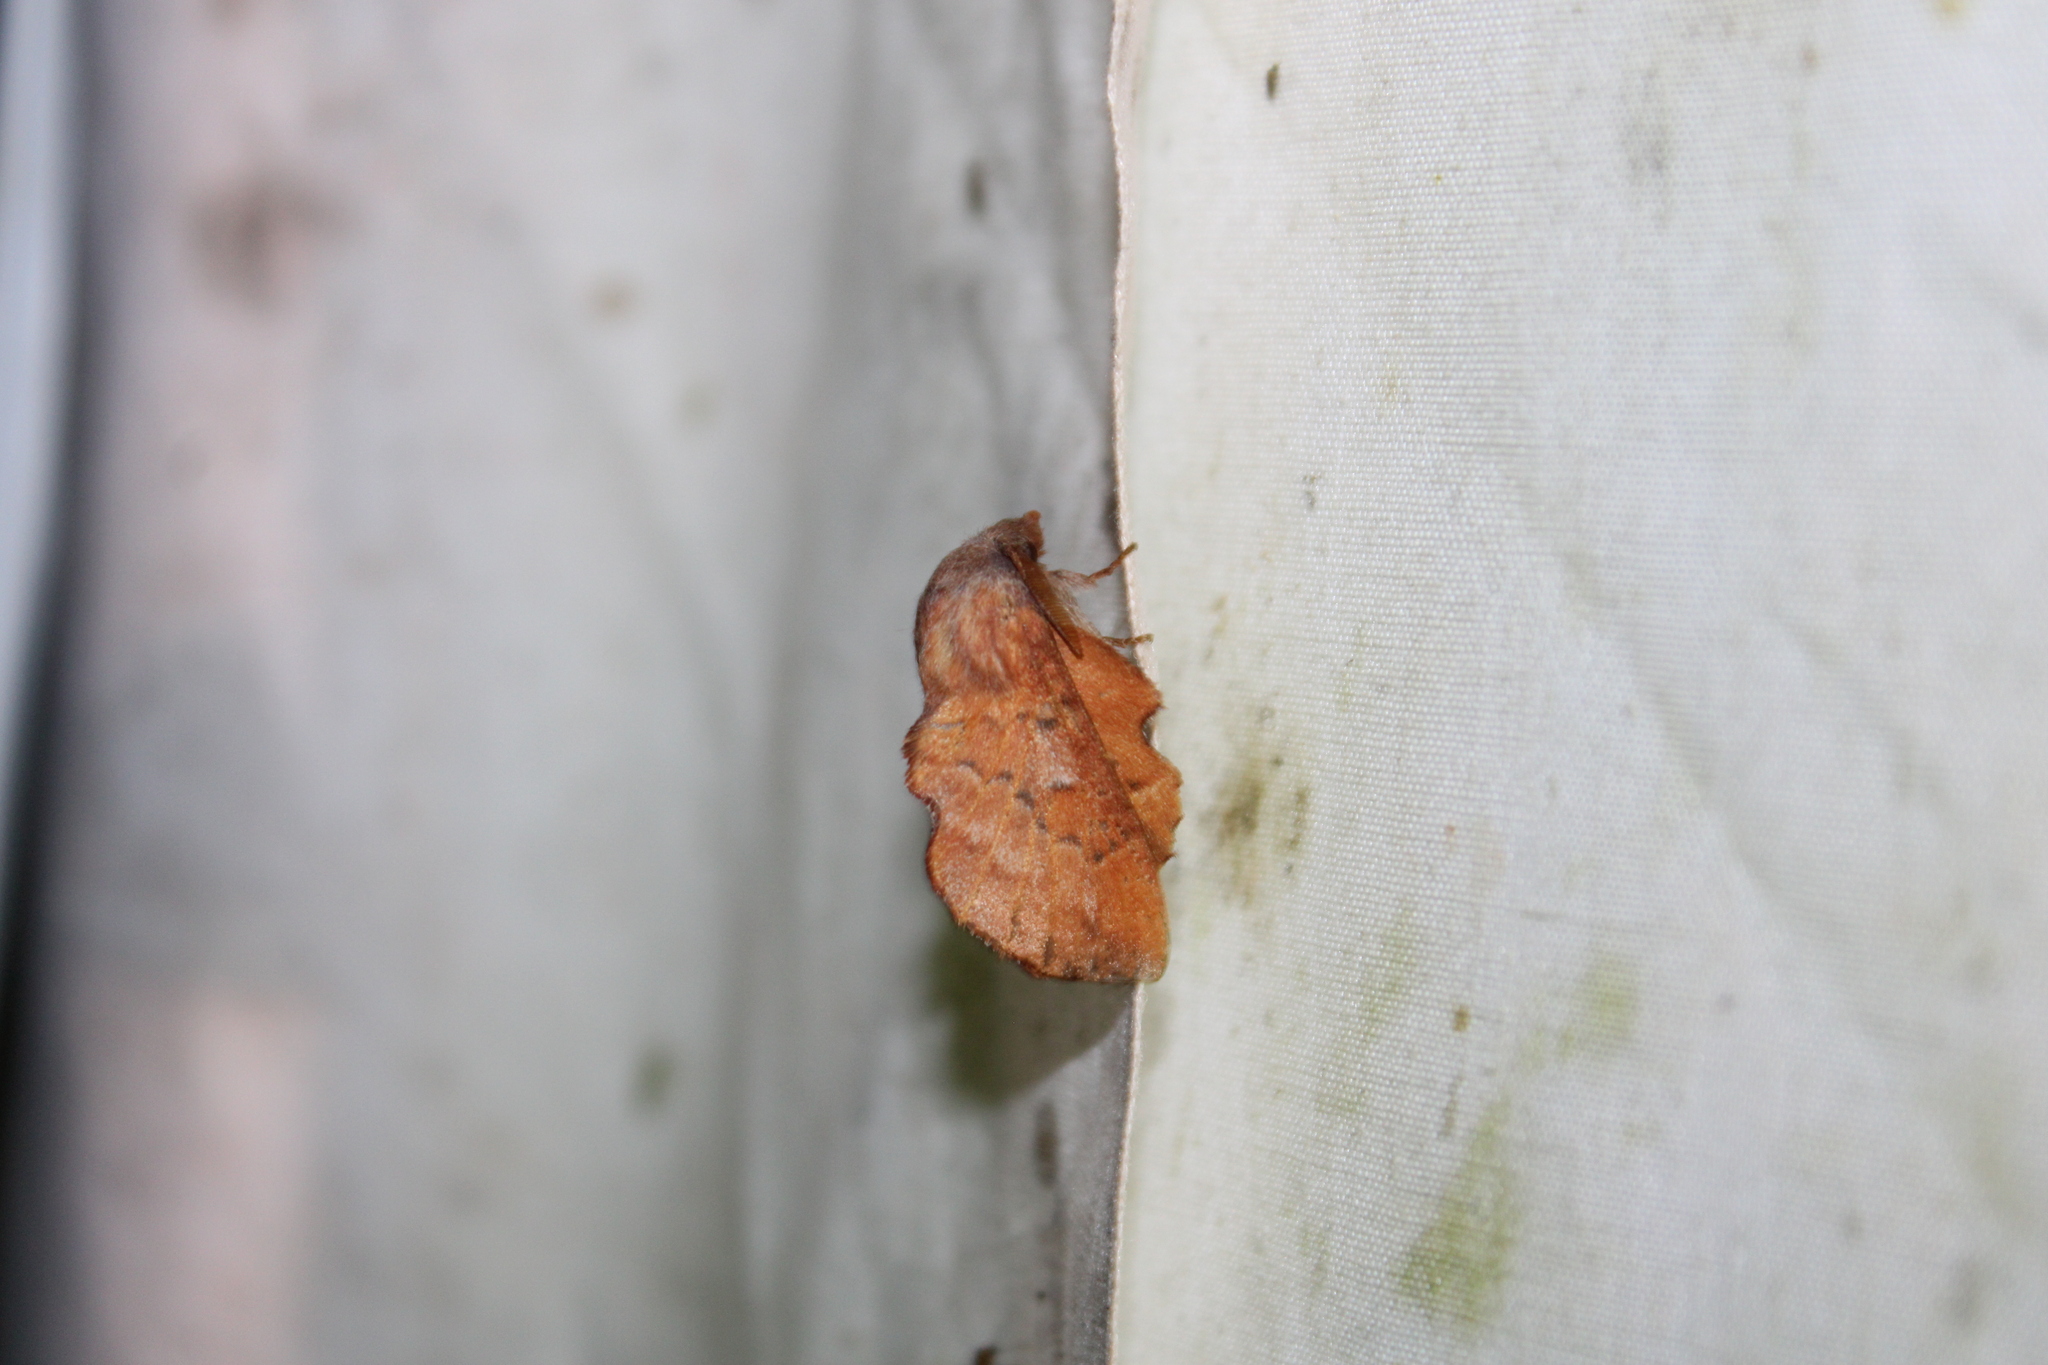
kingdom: Animalia
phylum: Arthropoda
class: Insecta
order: Lepidoptera
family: Lasiocampidae
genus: Phyllodesma
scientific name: Phyllodesma americana
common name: American lappet moth
